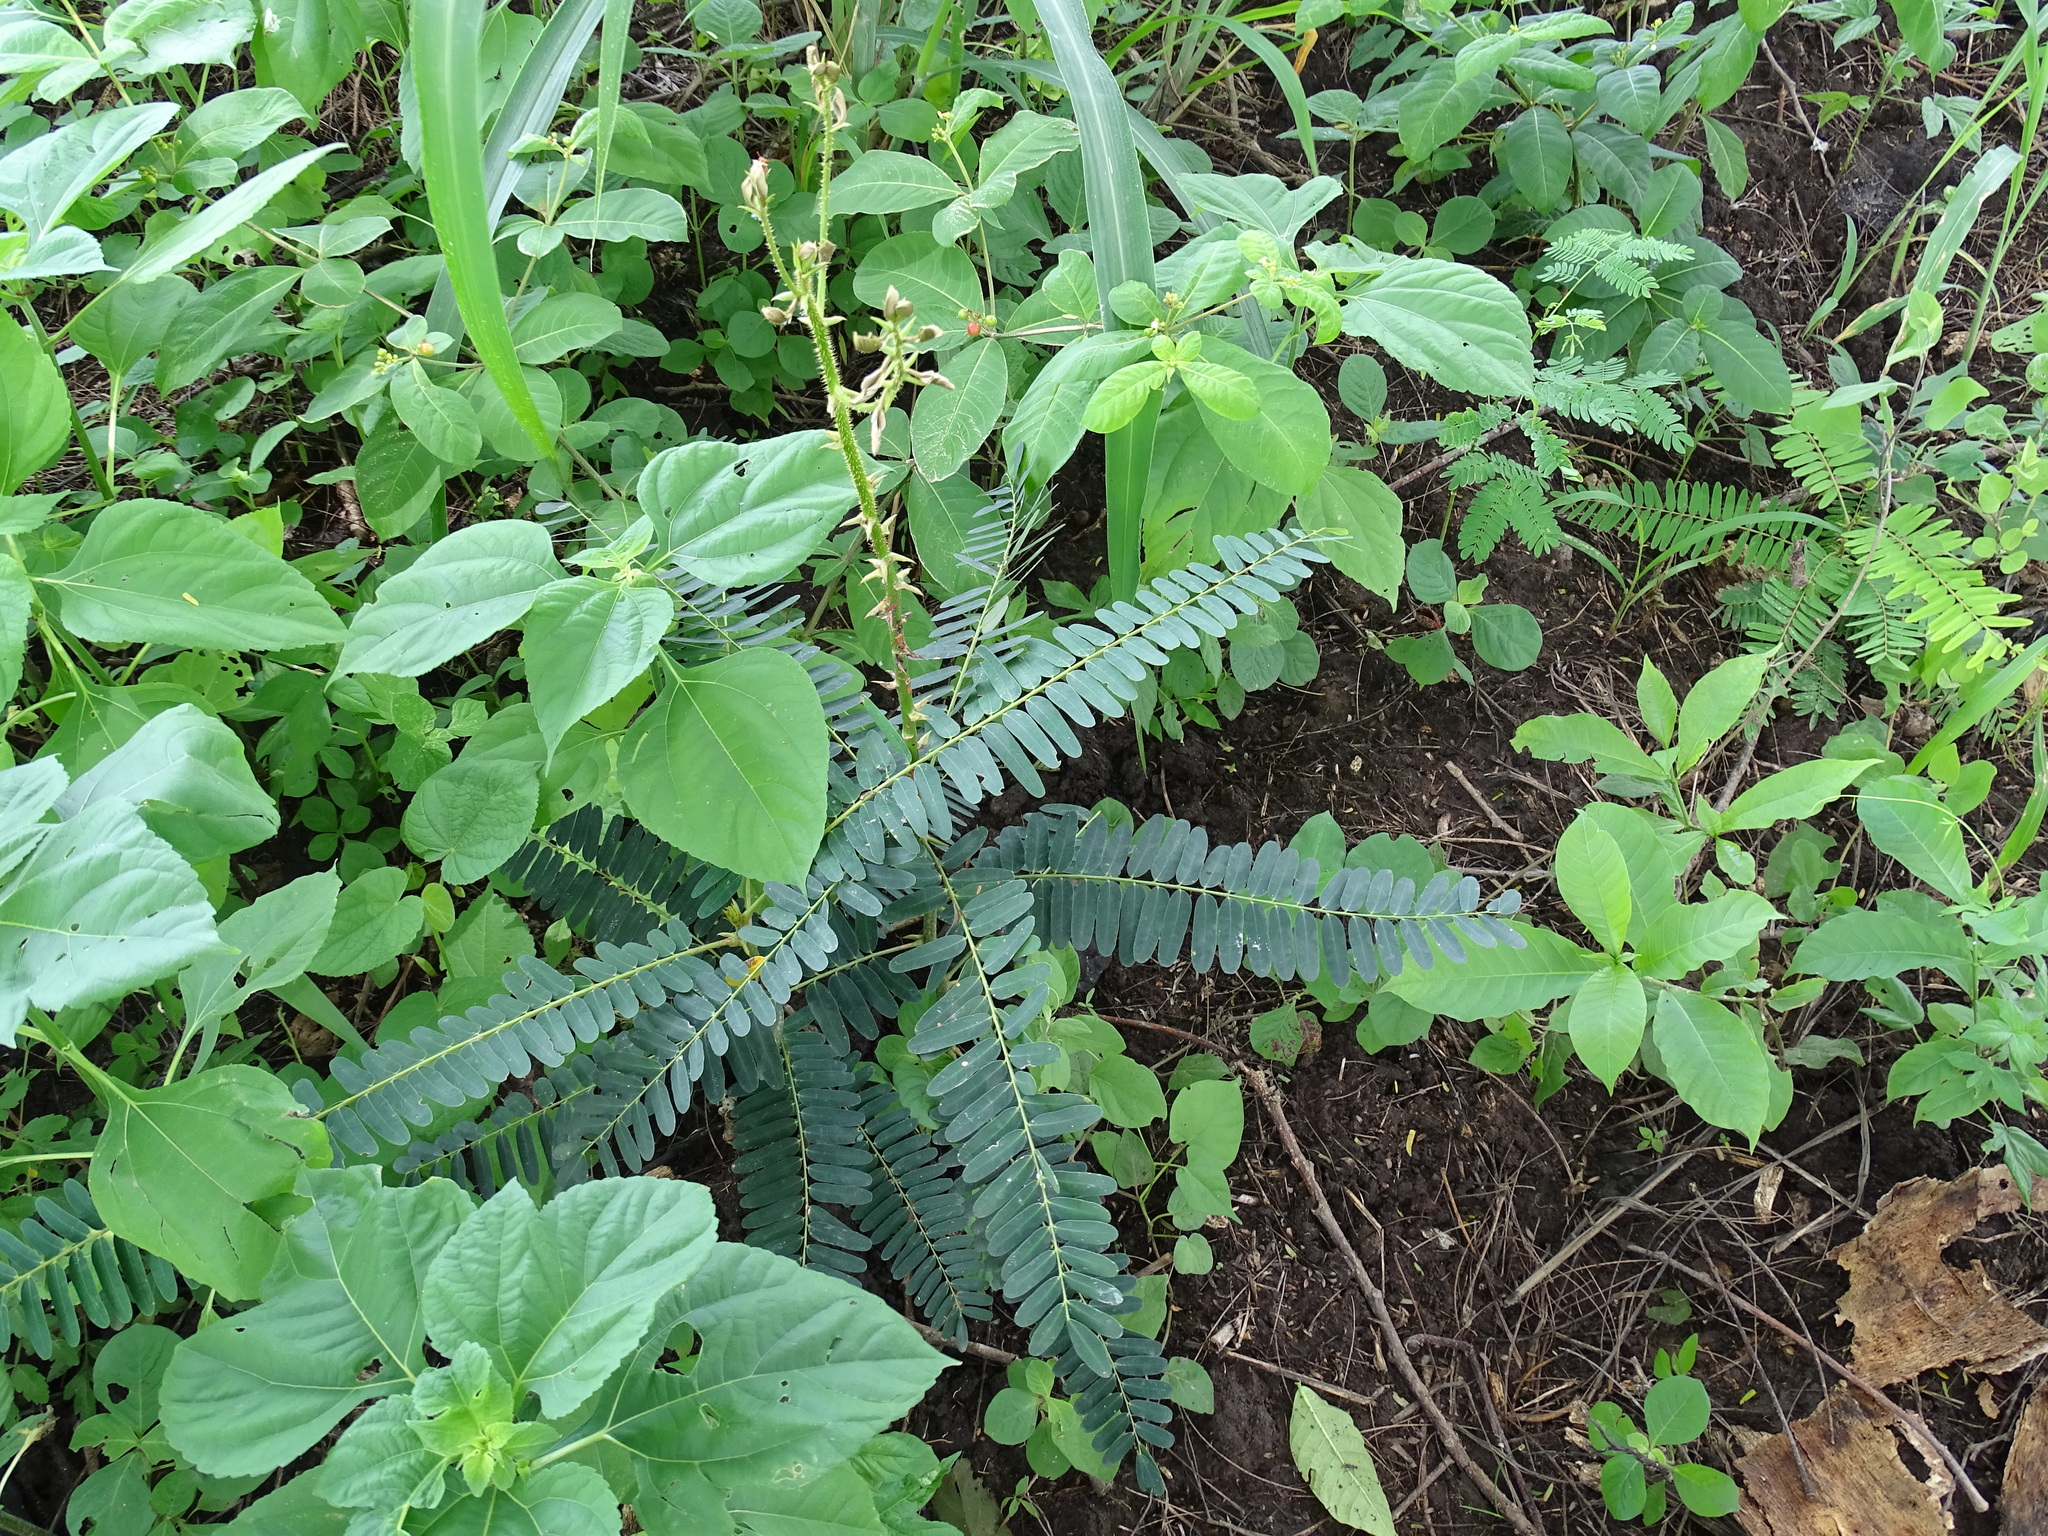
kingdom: Plantae
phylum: Tracheophyta
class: Magnoliopsida
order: Fabales
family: Fabaceae
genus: Machaerium
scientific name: Machaerium isadelphum
